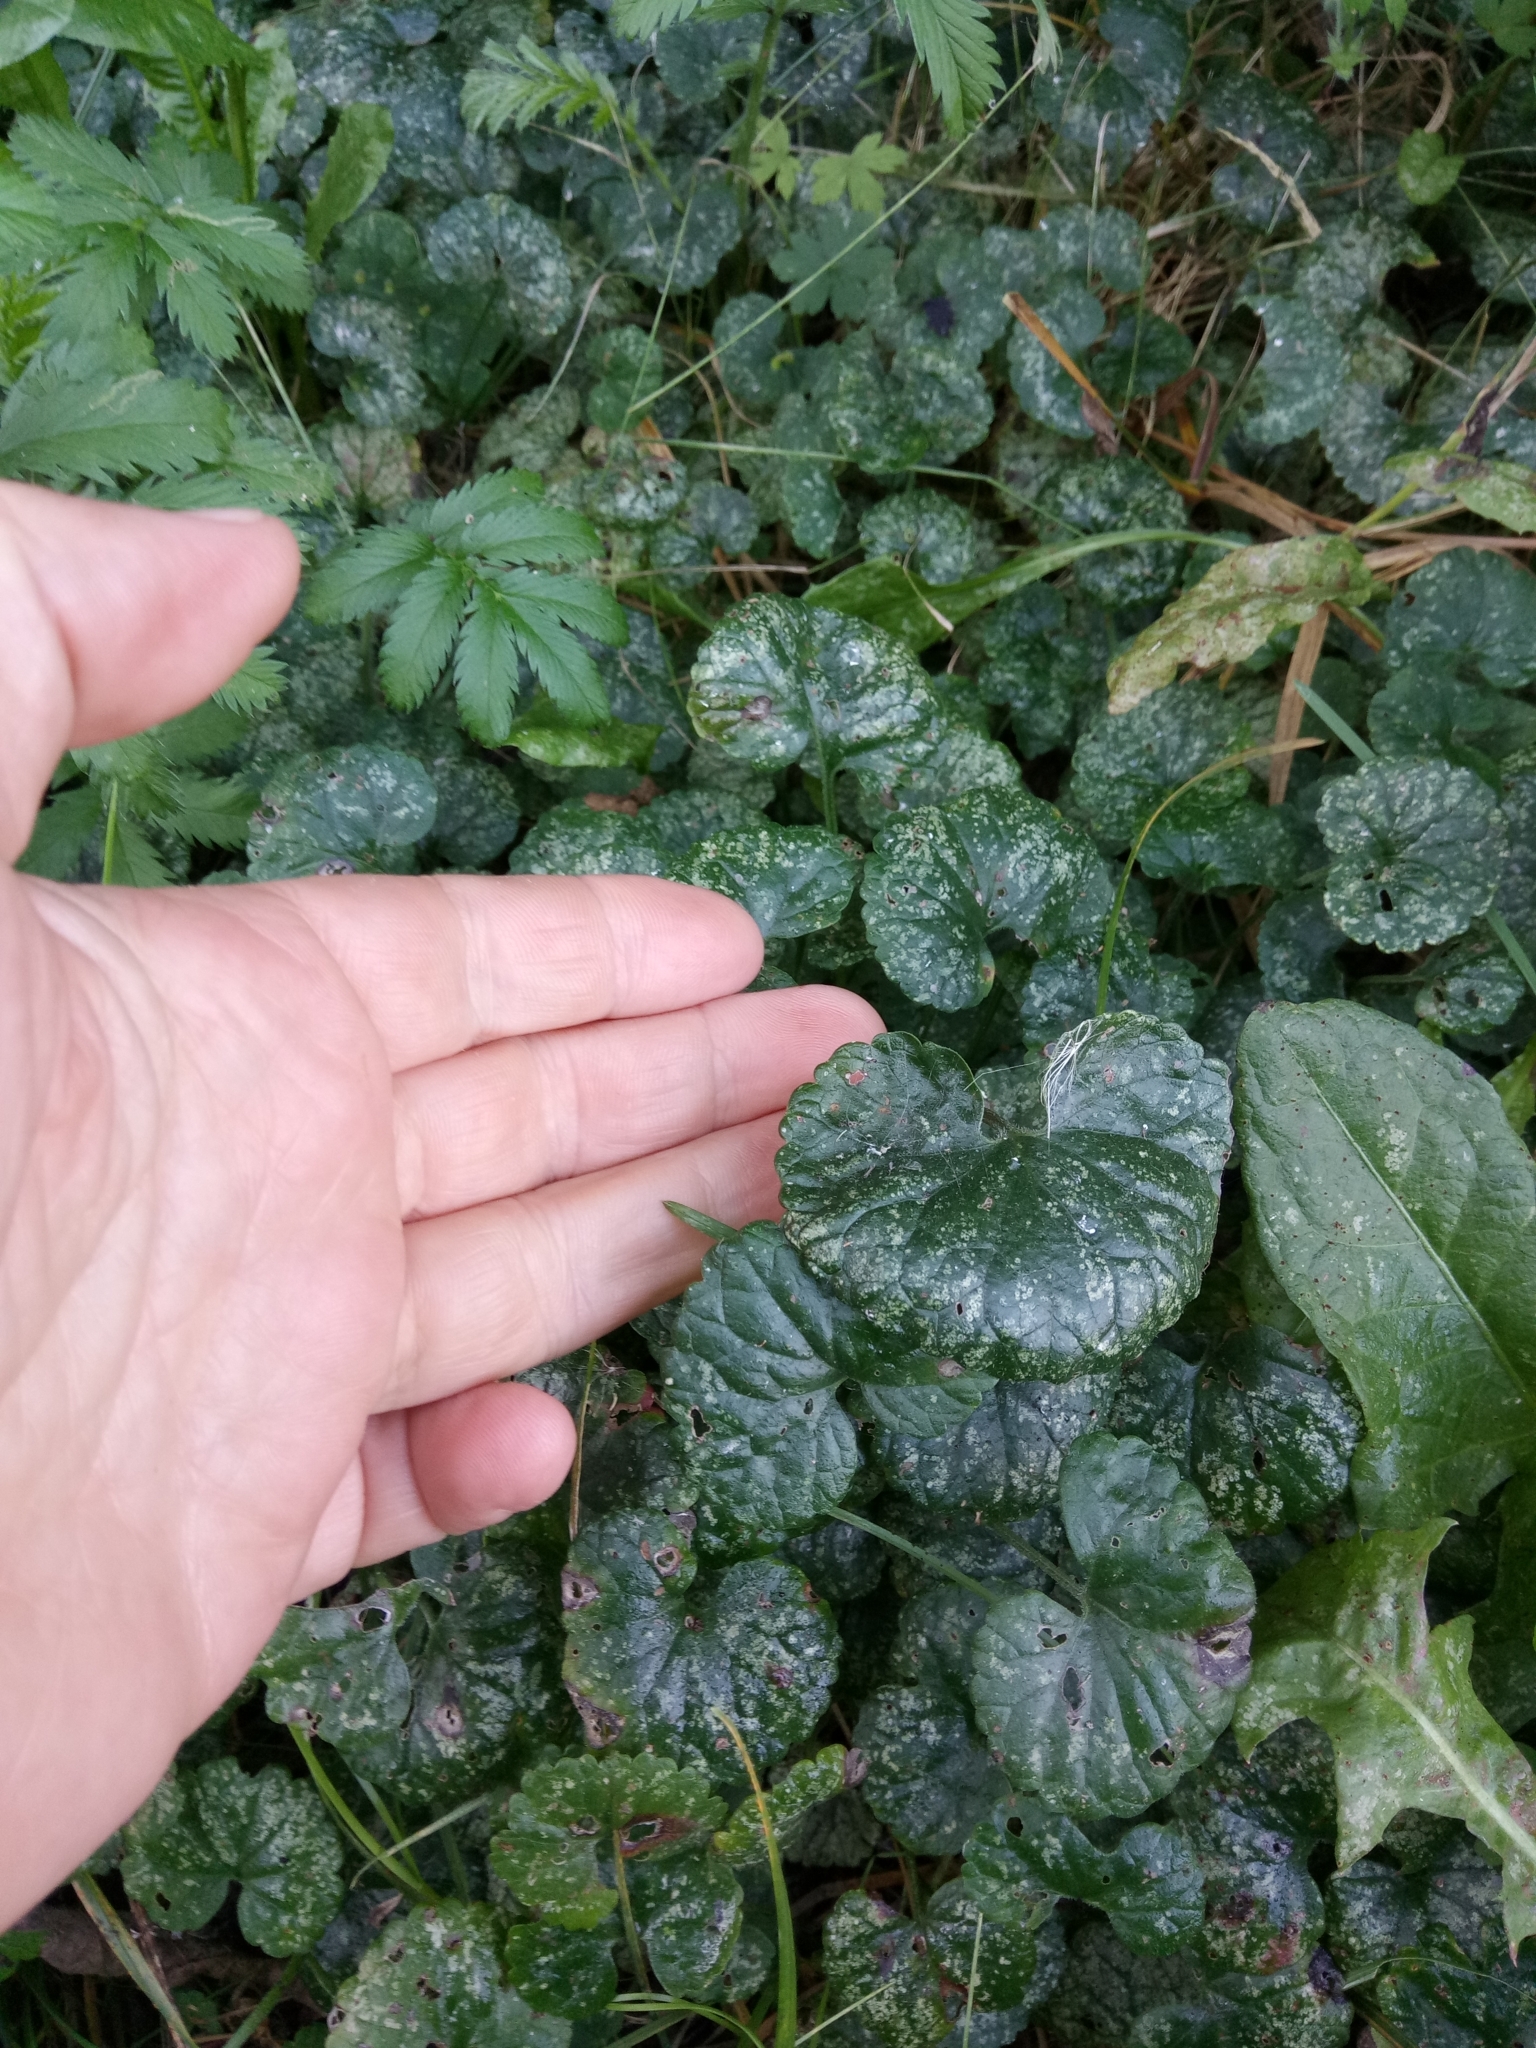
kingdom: Plantae
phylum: Tracheophyta
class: Magnoliopsida
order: Brassicales
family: Brassicaceae
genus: Alliaria
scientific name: Alliaria petiolata
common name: Garlic mustard
